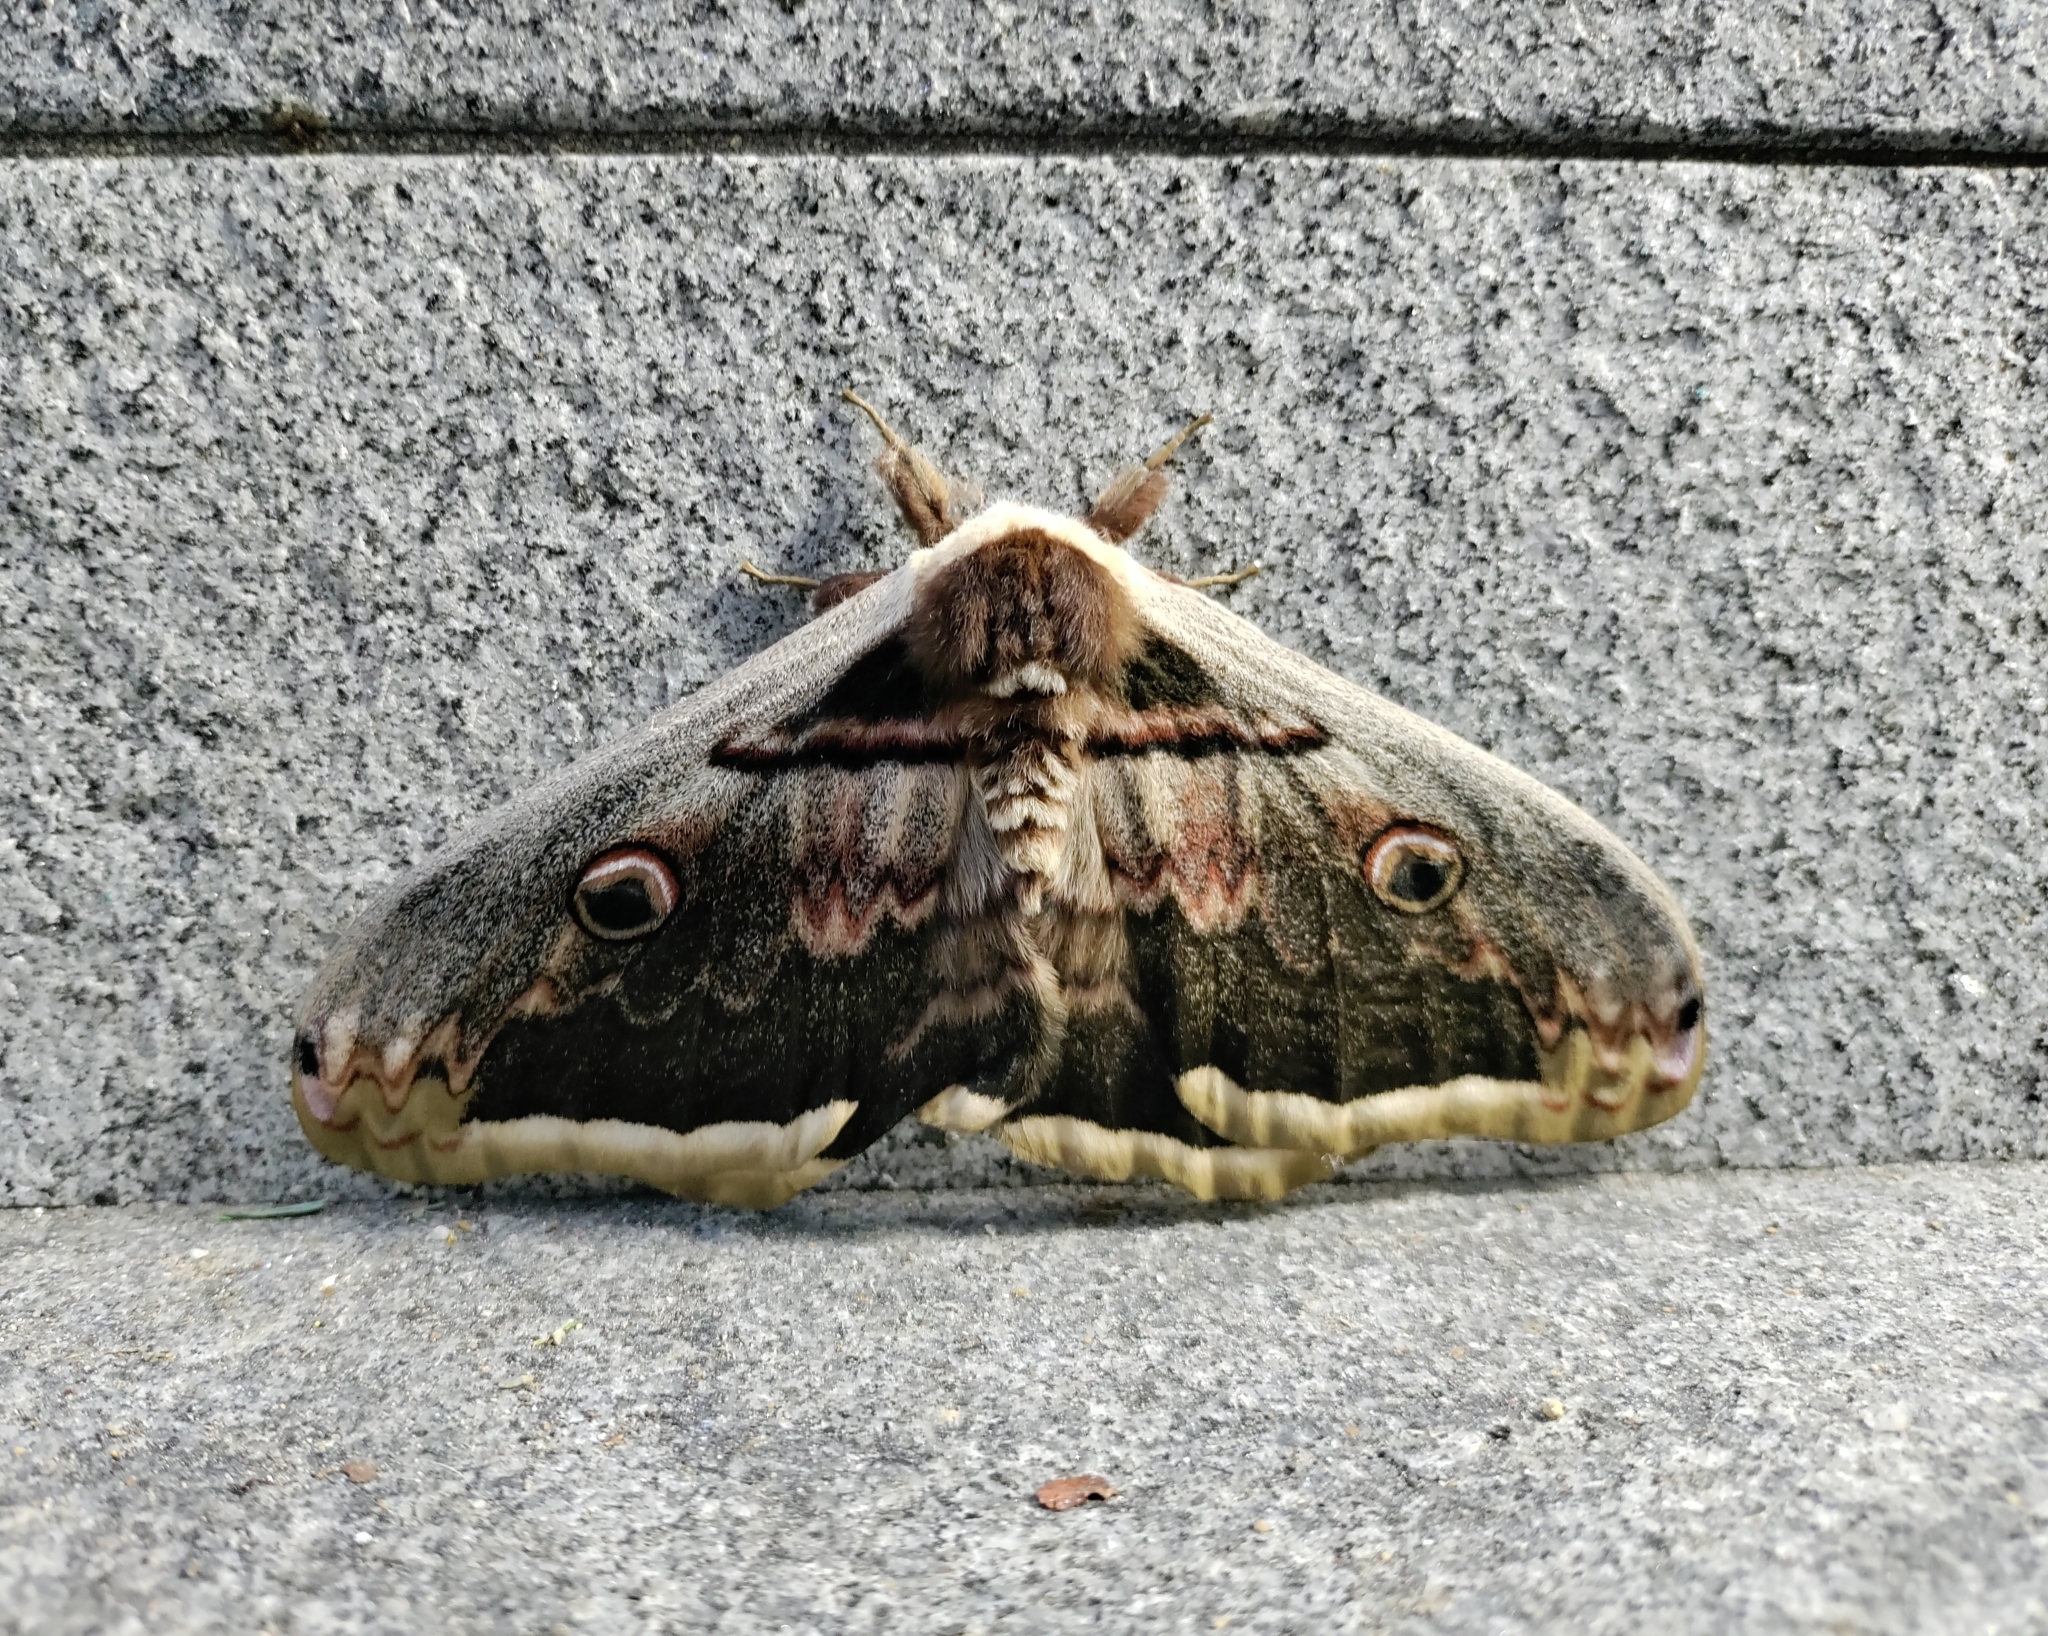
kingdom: Animalia
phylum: Arthropoda
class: Insecta
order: Lepidoptera
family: Saturniidae
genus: Saturnia
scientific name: Saturnia pyri
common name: Great peacock moth
